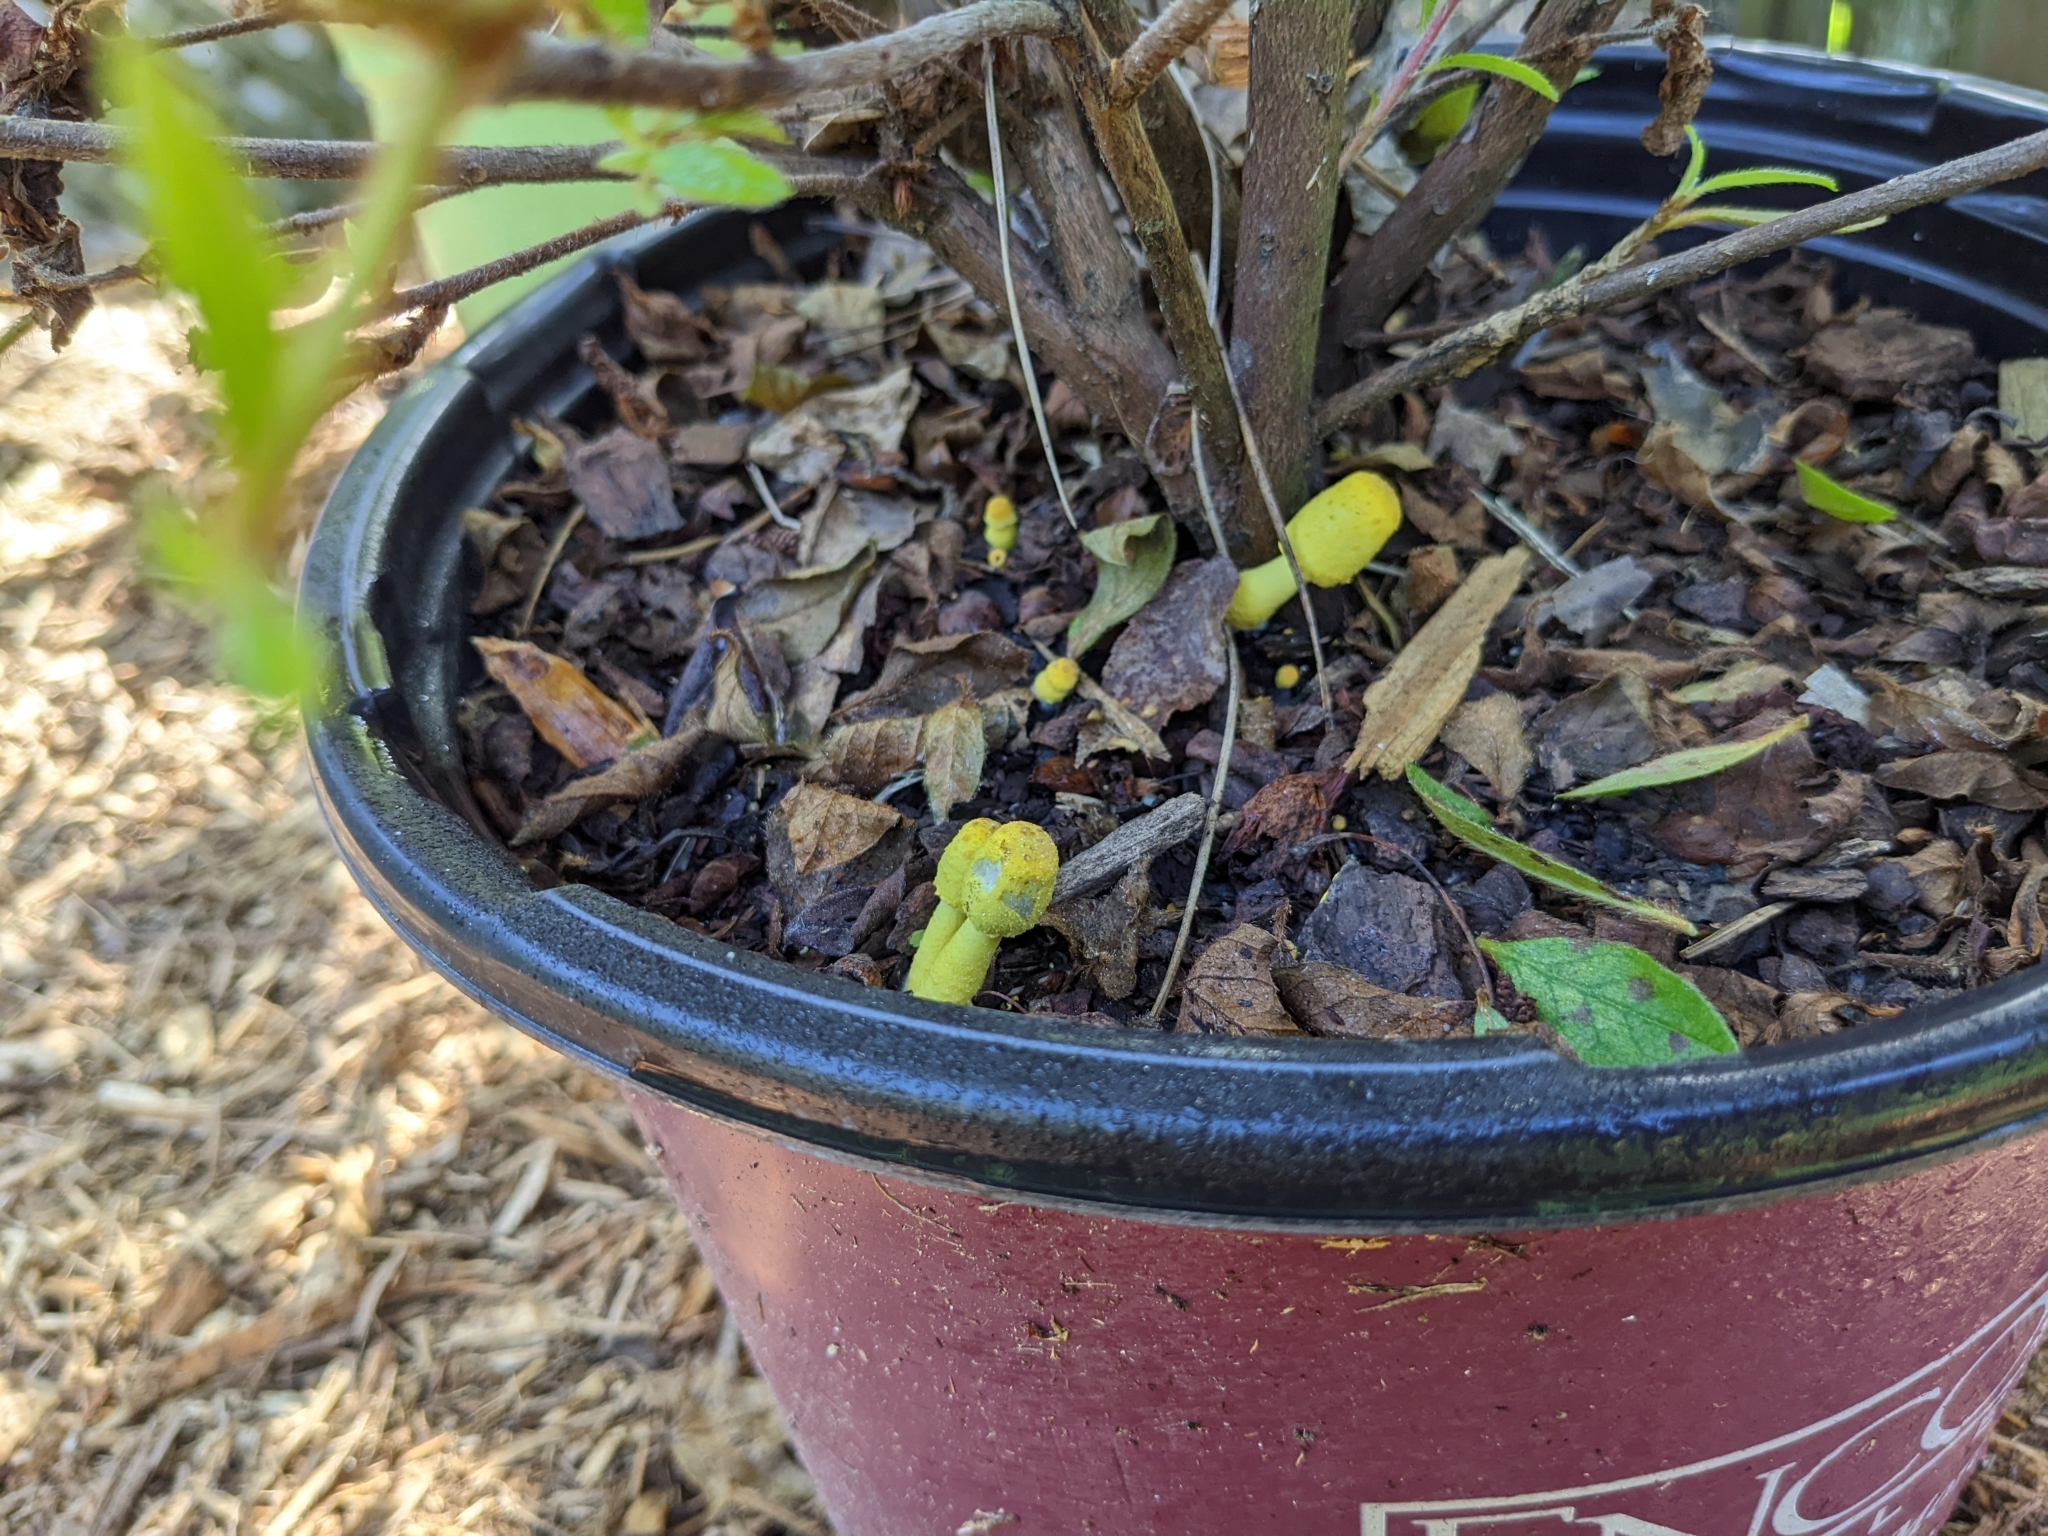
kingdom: Fungi
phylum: Basidiomycota
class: Agaricomycetes
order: Agaricales
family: Agaricaceae
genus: Leucocoprinus
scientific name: Leucocoprinus birnbaumii
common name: Plantpot dapperling
